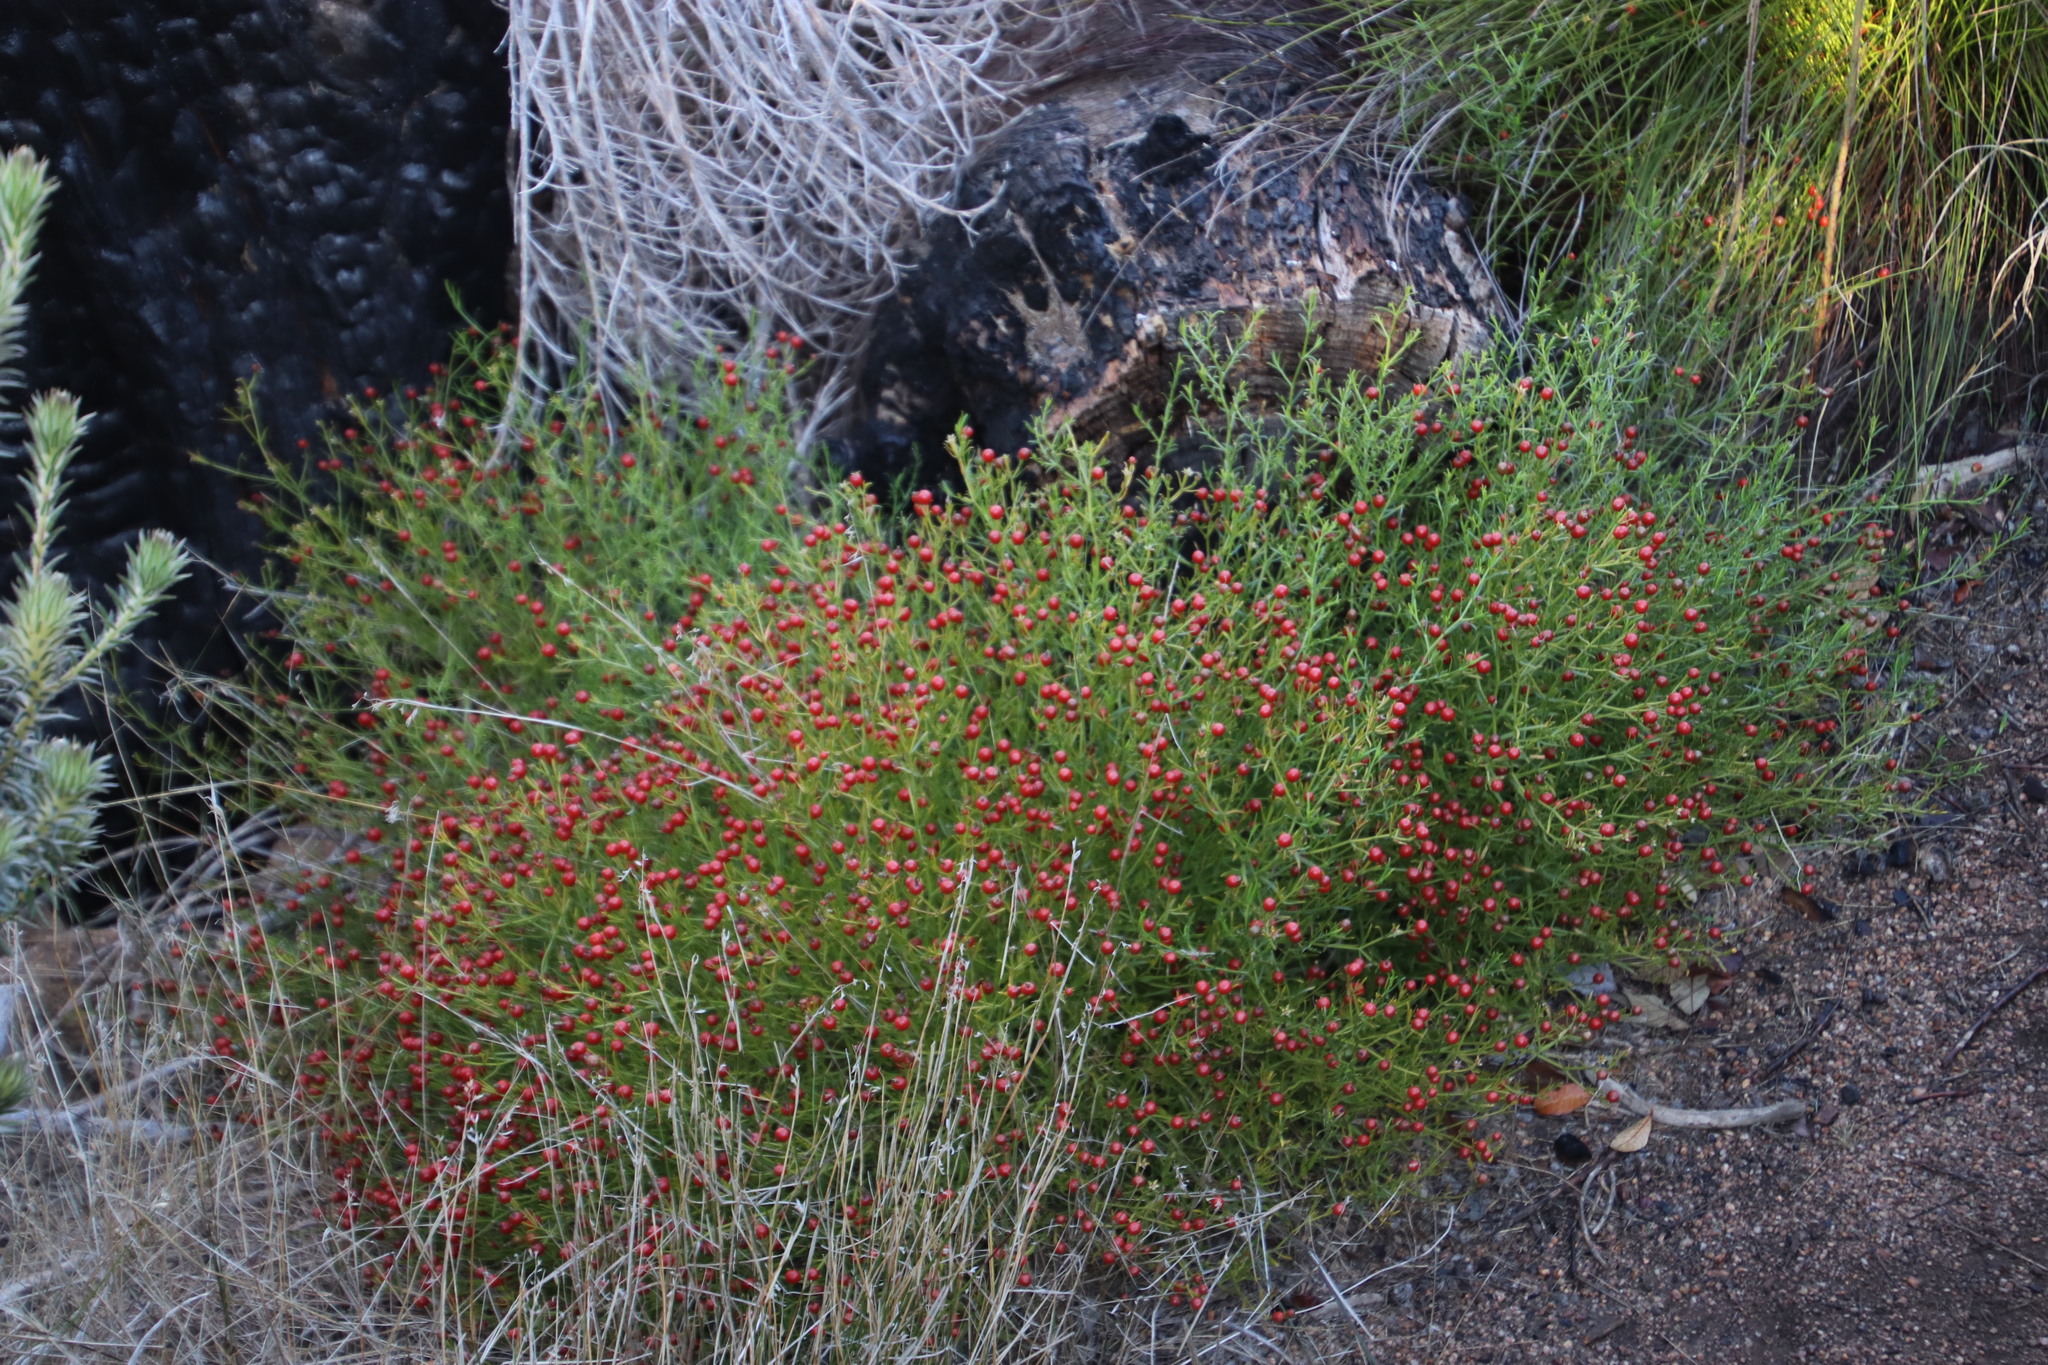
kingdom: Plantae
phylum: Tracheophyta
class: Magnoliopsida
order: Gentianales
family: Gentianaceae
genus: Chironia
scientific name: Chironia baccifera
